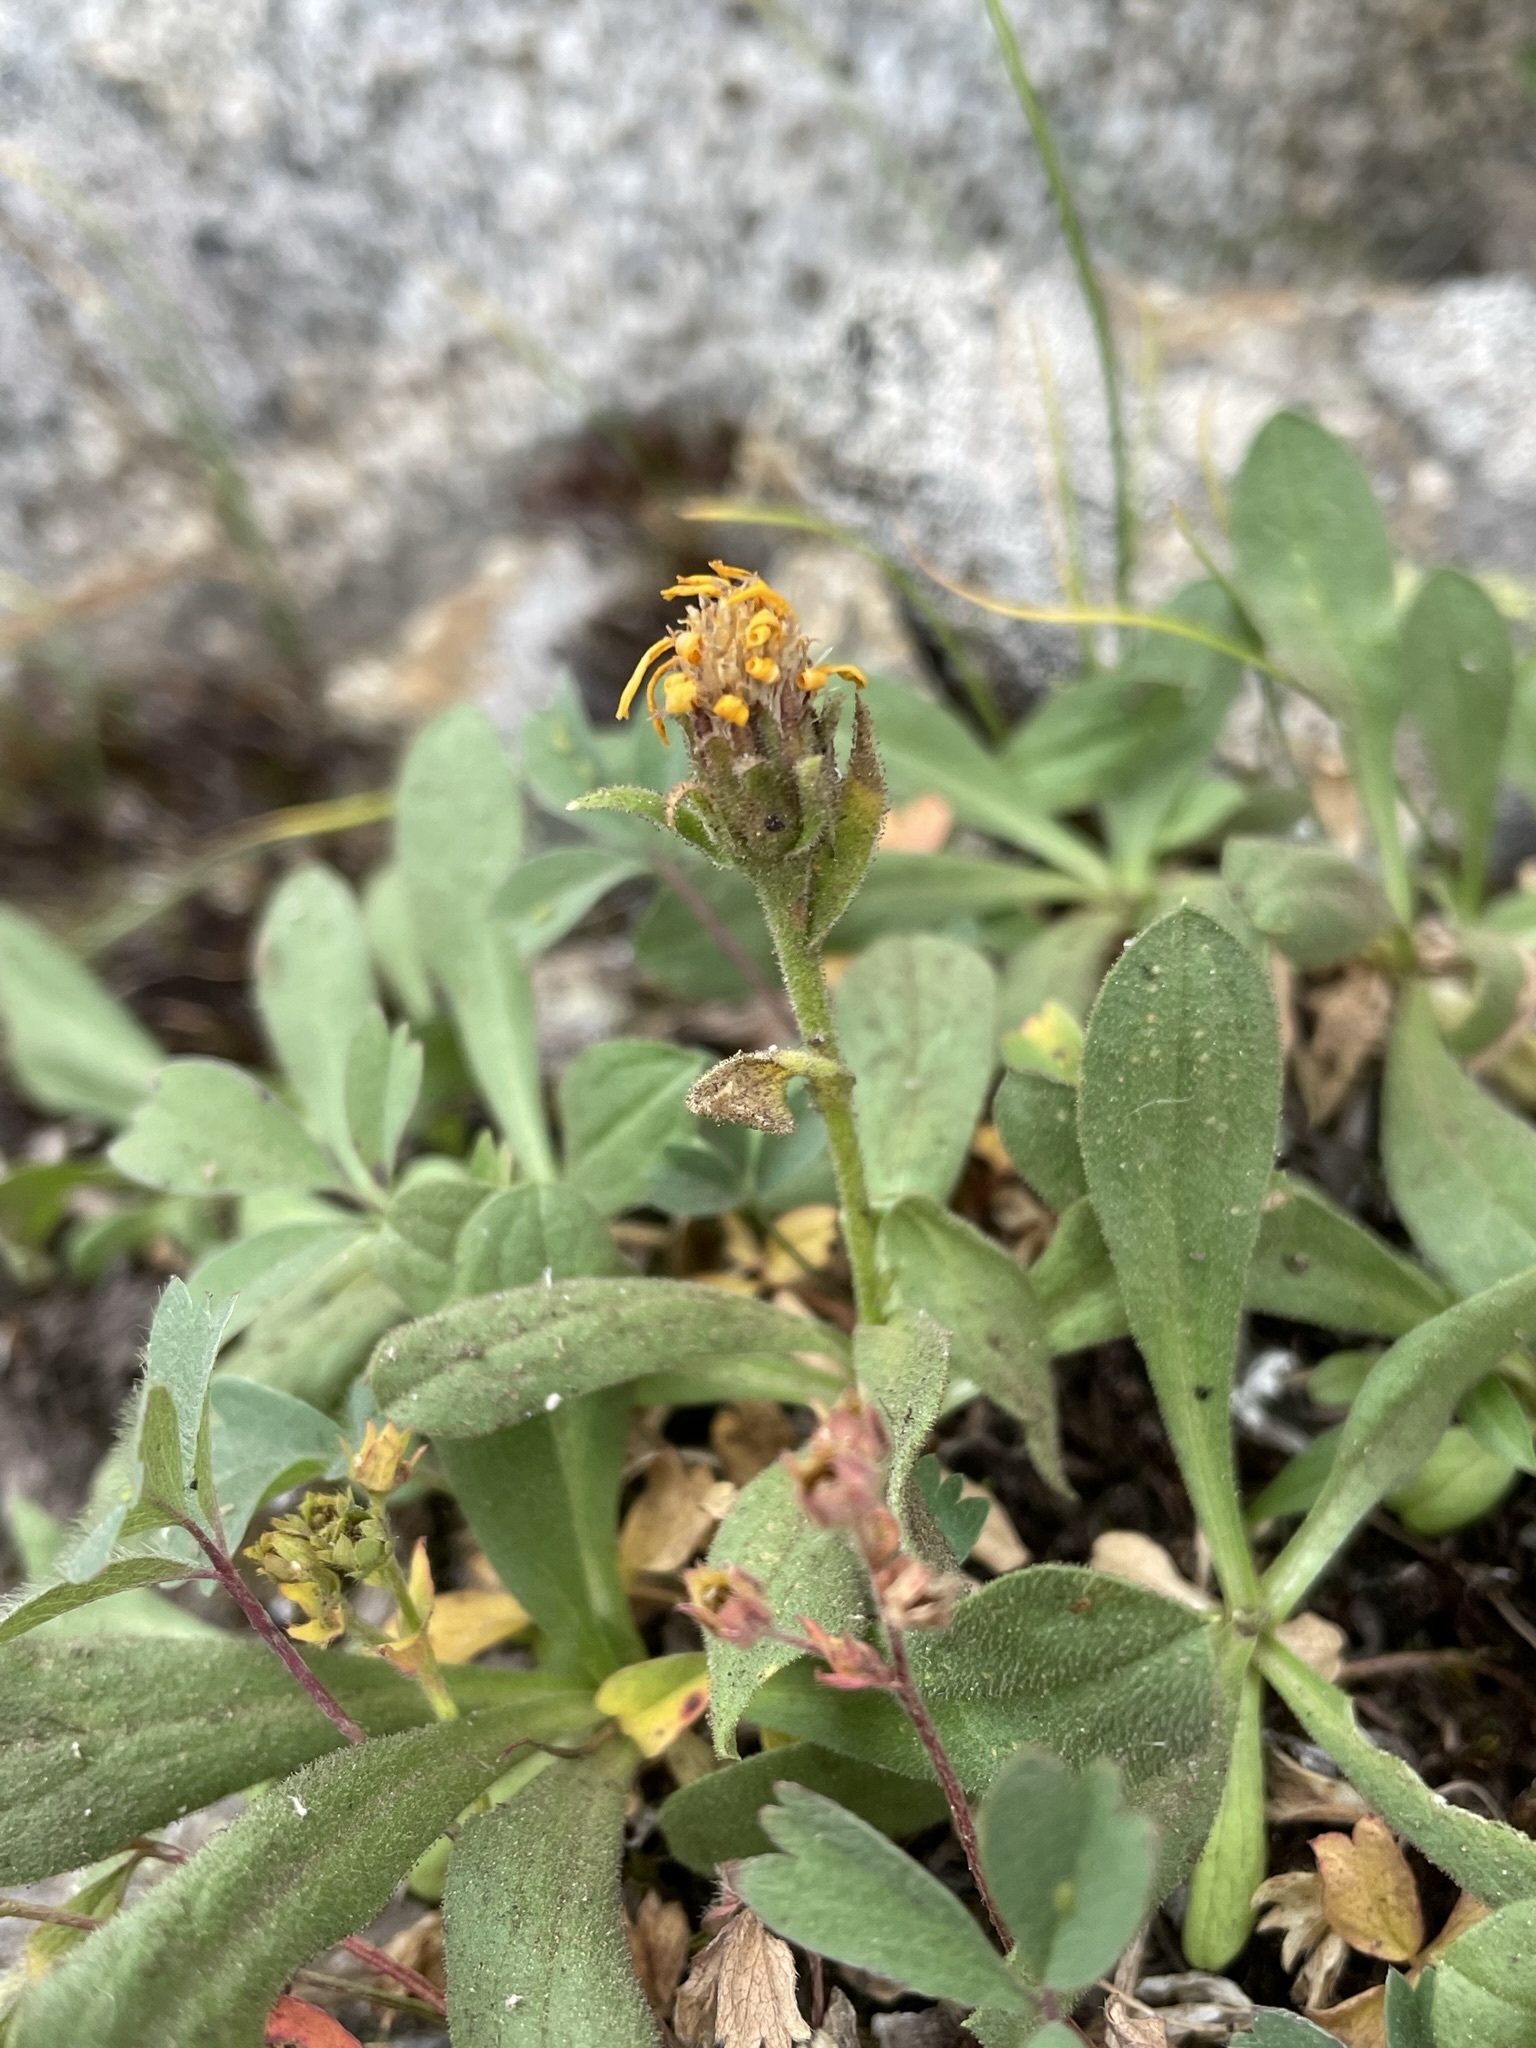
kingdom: Plantae
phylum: Tracheophyta
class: Magnoliopsida
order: Asterales
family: Asteraceae
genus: Tonestus
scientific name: Tonestus lyallii
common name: Lyall's goldenweed
